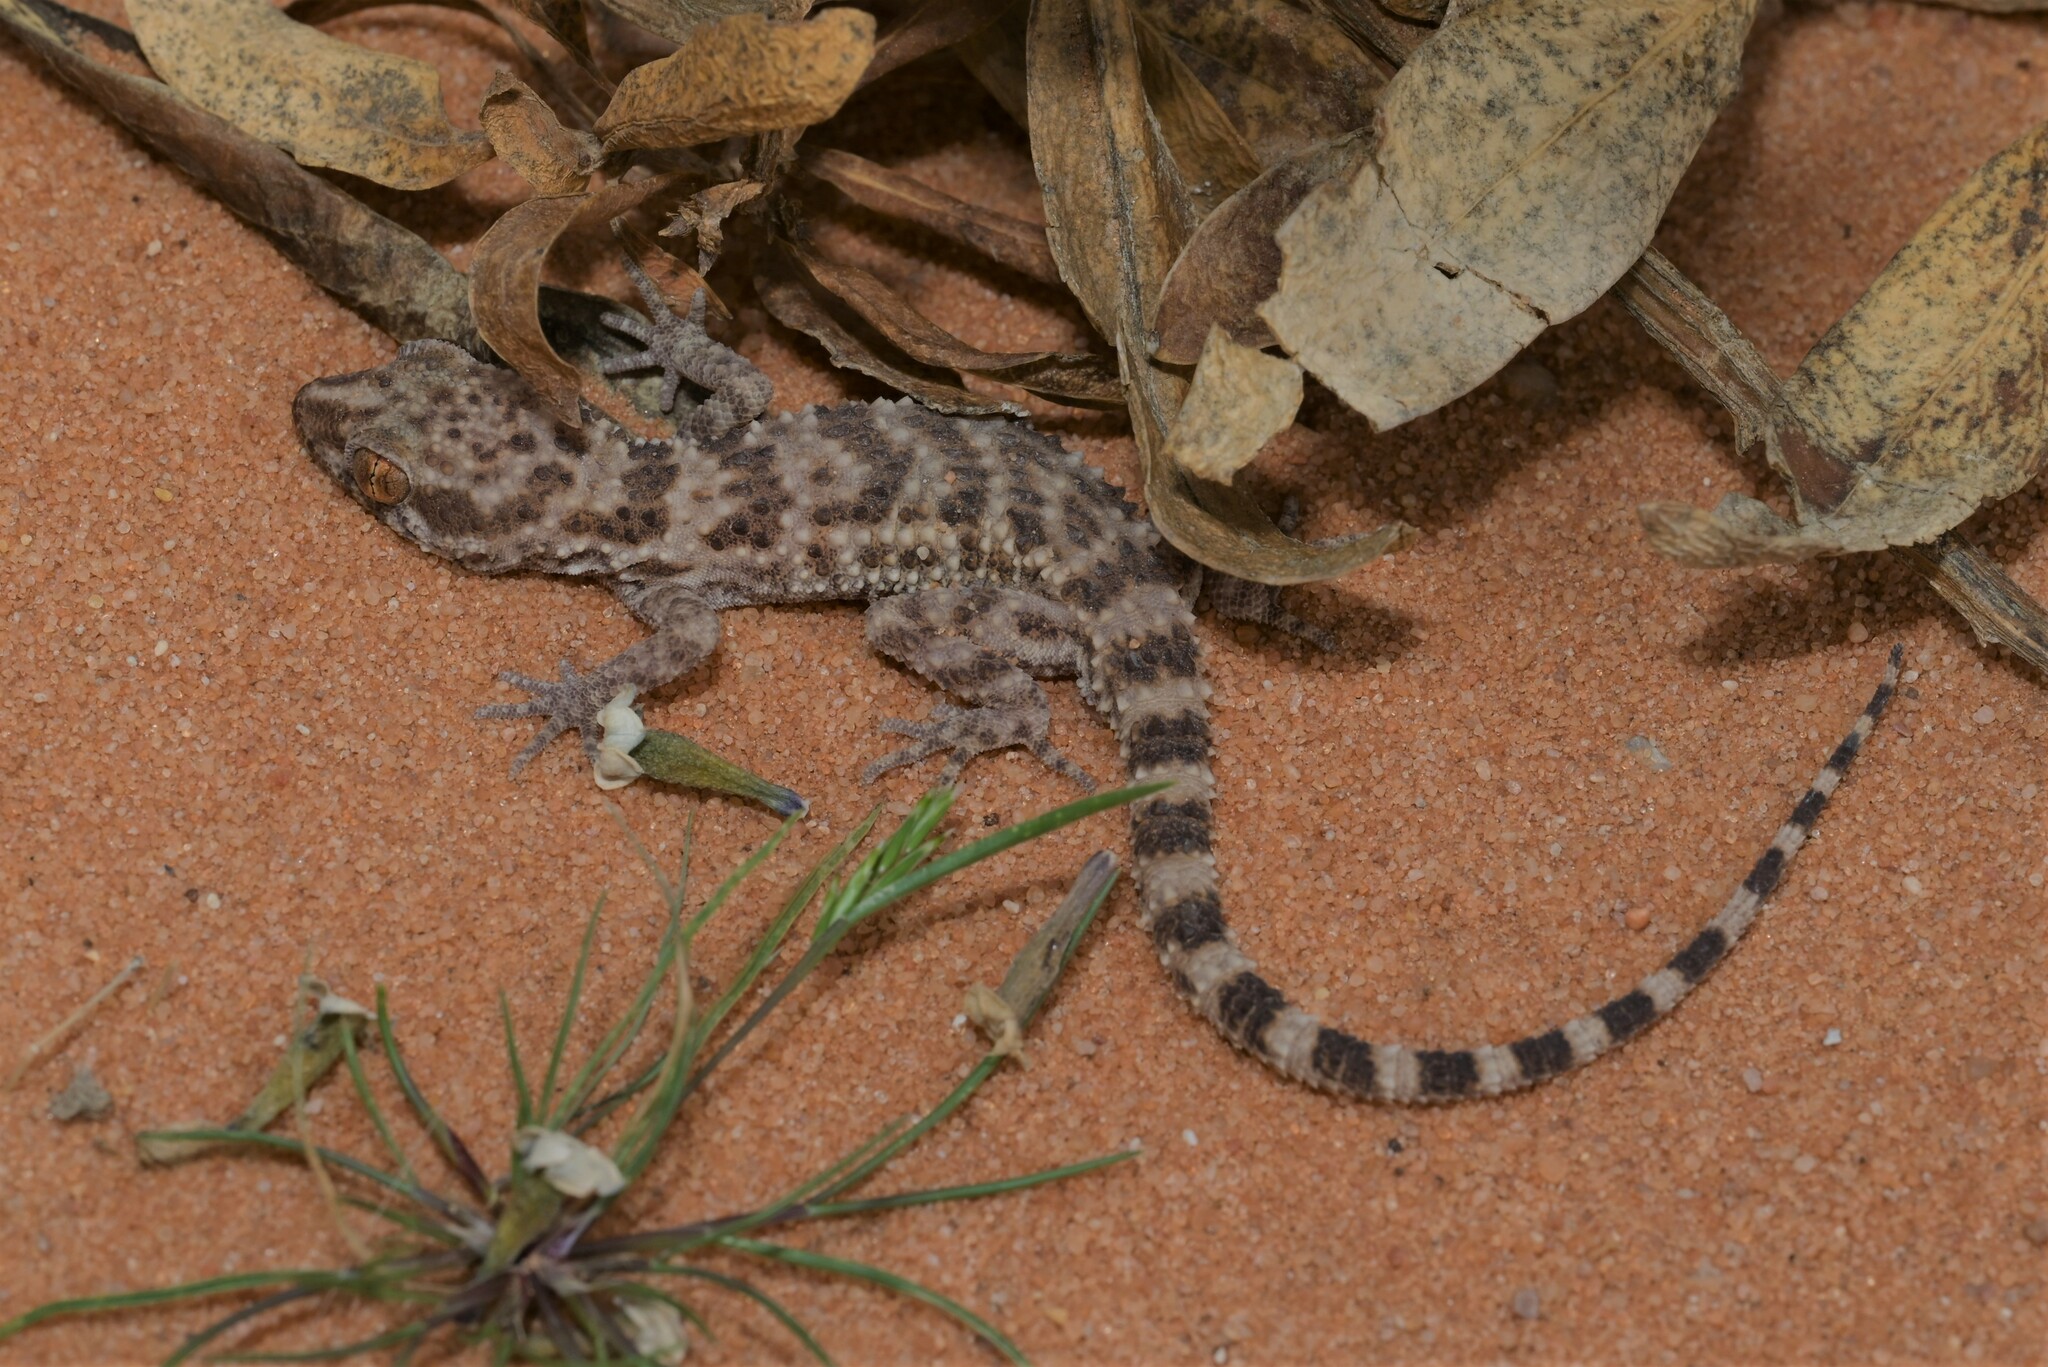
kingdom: Animalia
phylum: Chordata
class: Squamata
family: Gekkonidae
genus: Bunopus
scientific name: Bunopus tuberculatus
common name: Southern tuberculated gecko
